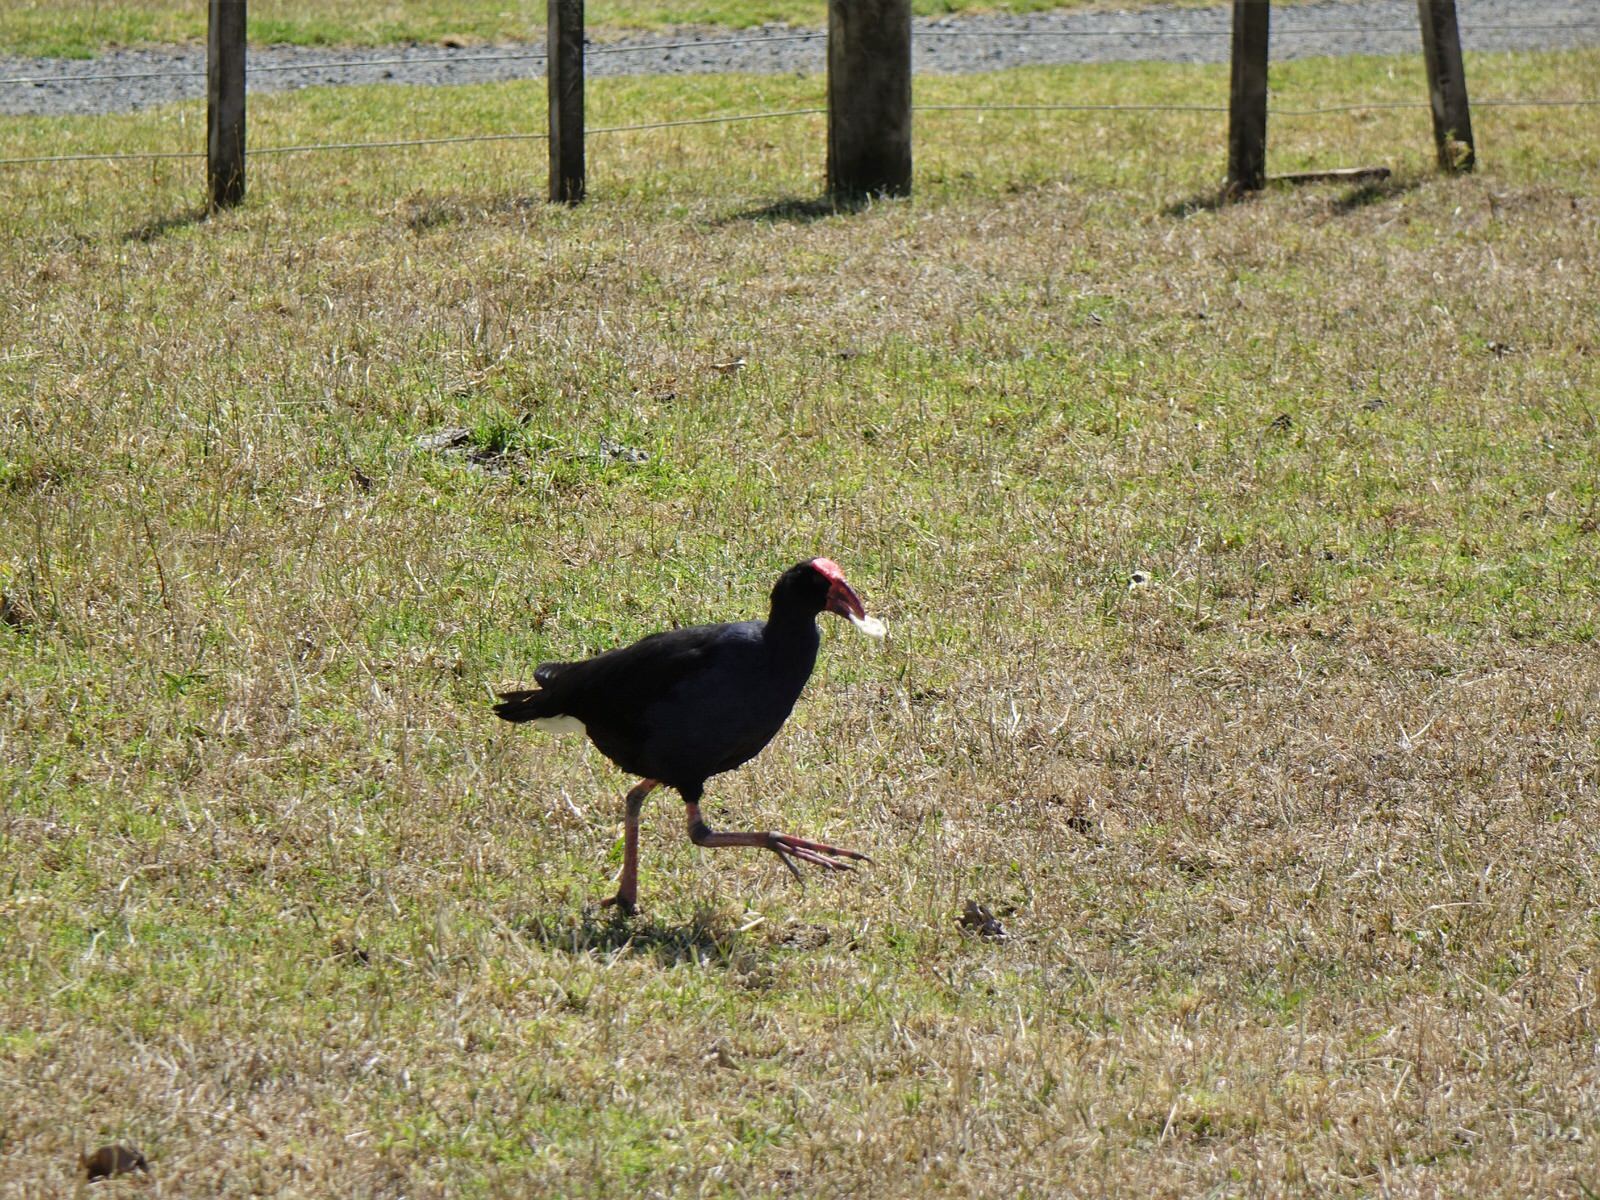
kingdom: Animalia
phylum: Chordata
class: Aves
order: Gruiformes
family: Rallidae
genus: Porphyrio
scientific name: Porphyrio melanotus
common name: Australasian swamphen
